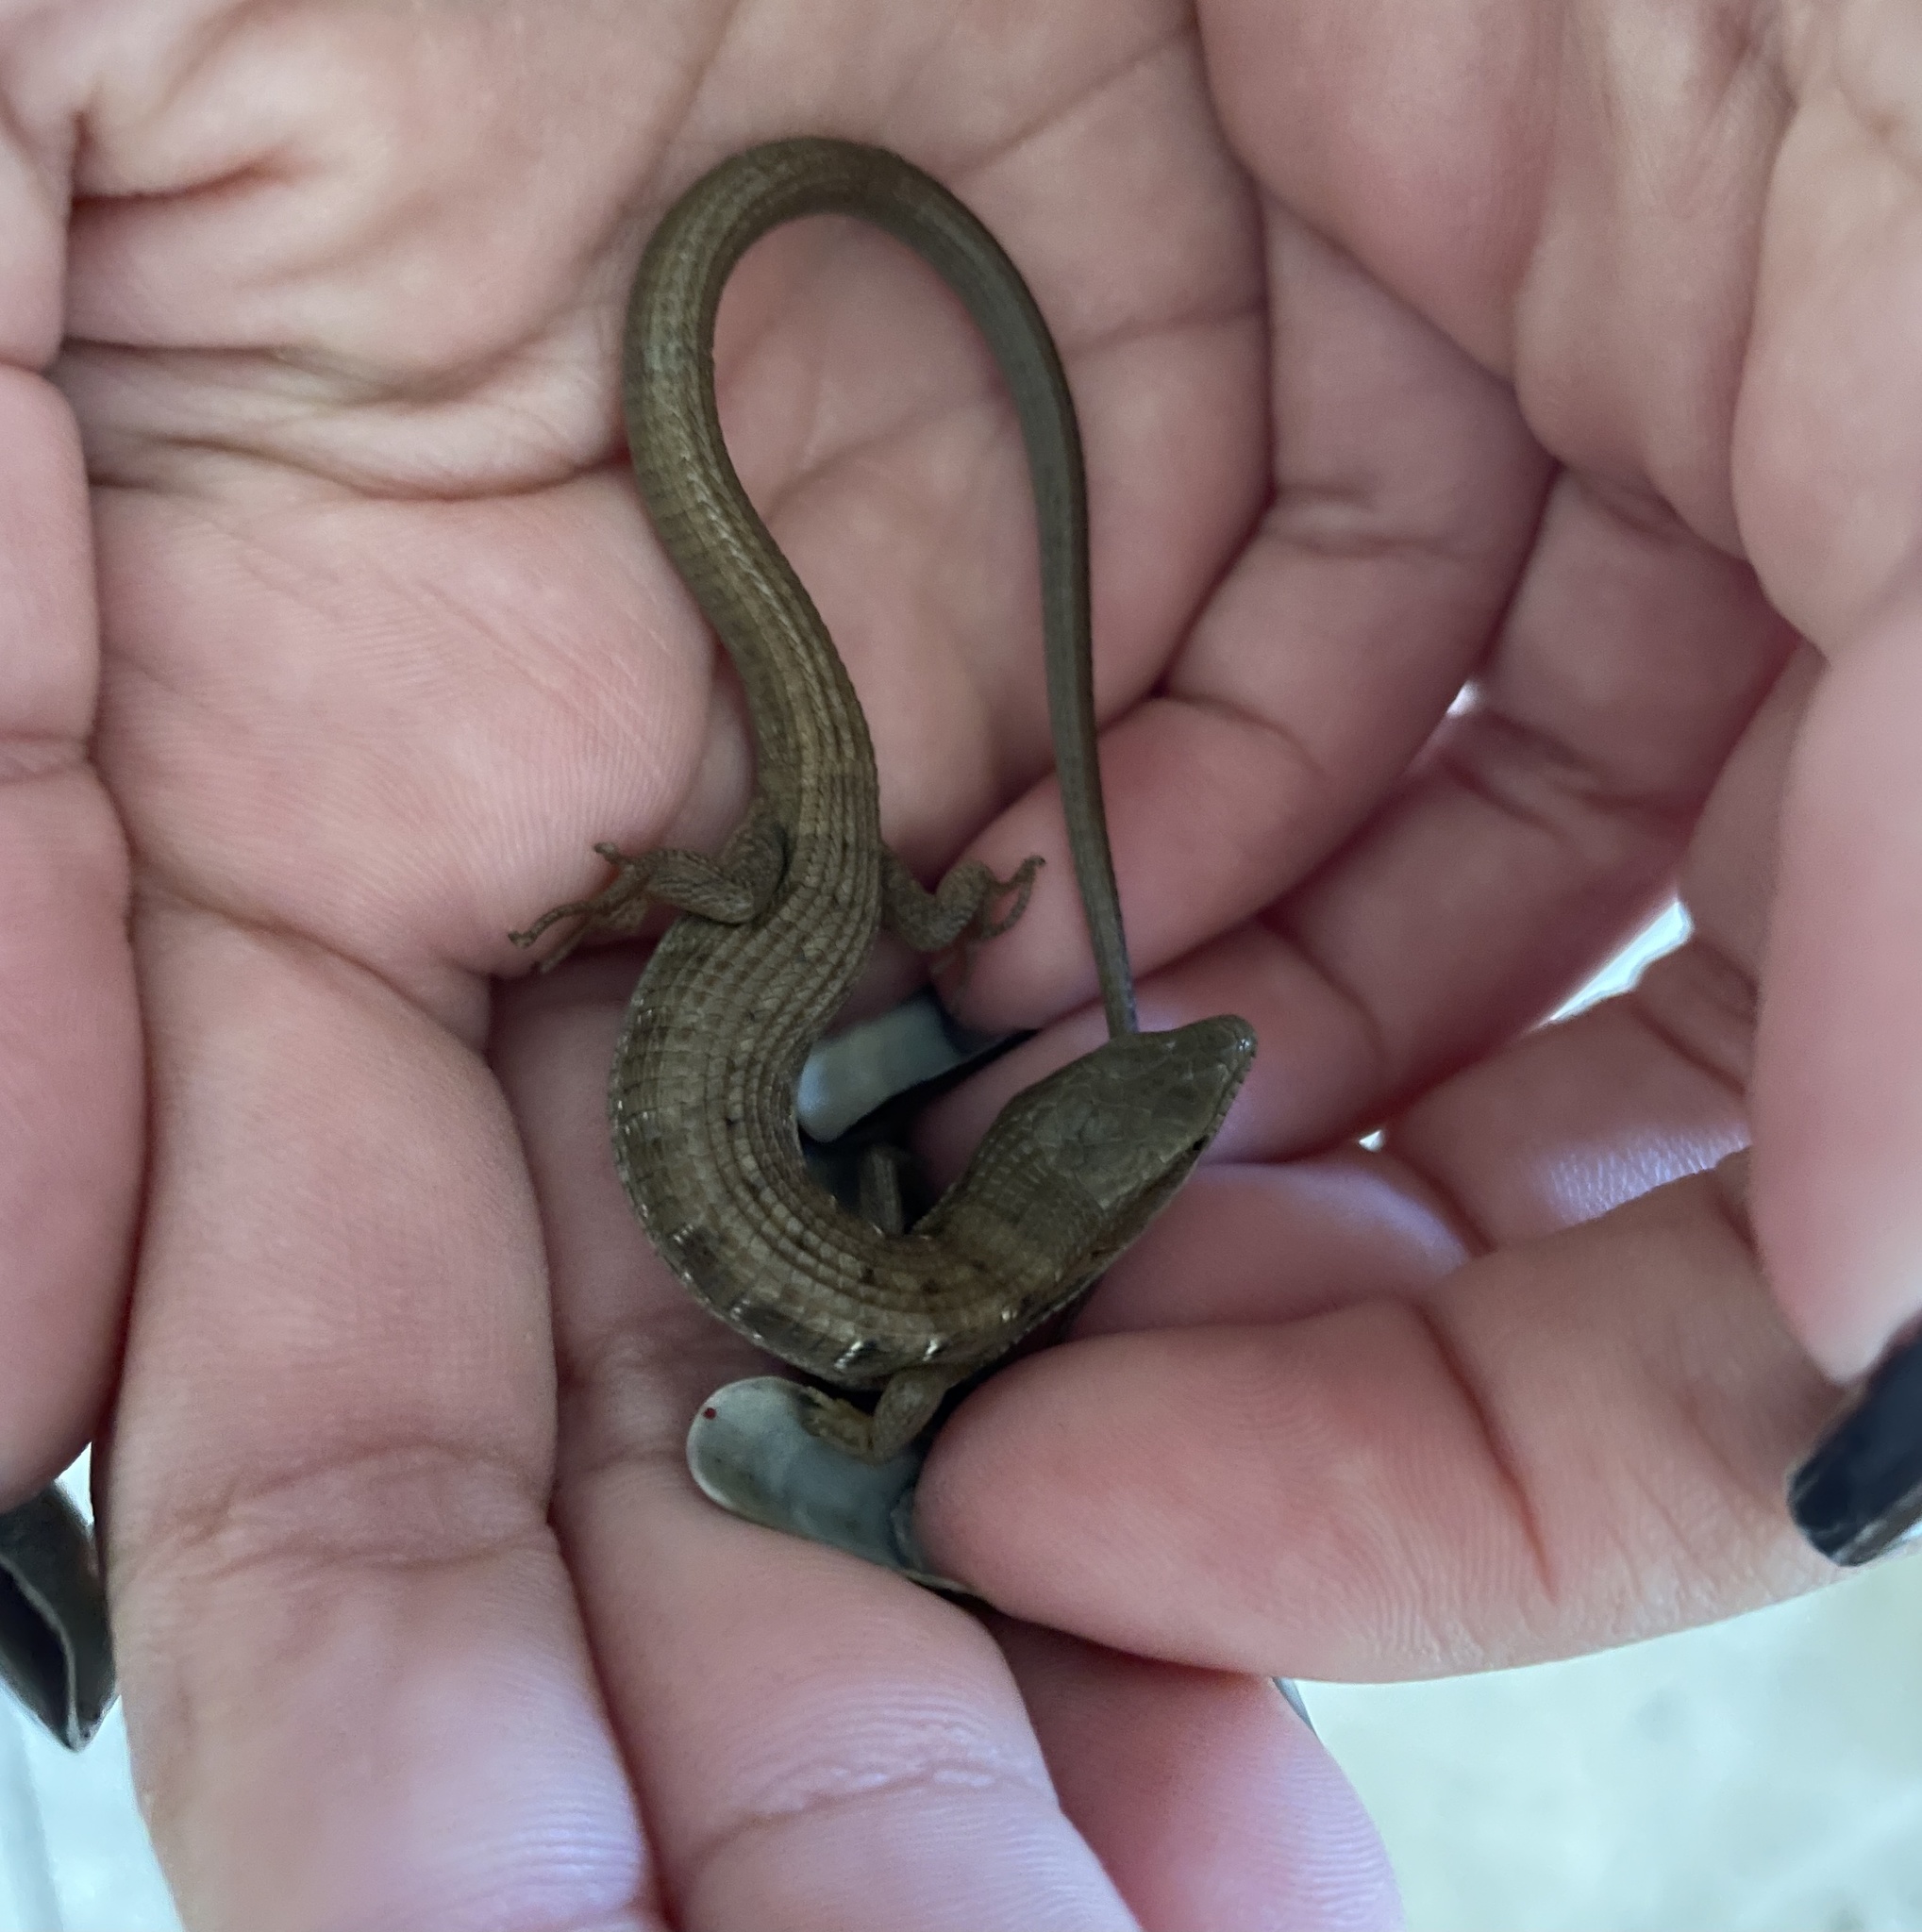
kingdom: Animalia
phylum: Chordata
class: Squamata
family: Anguidae
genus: Elgaria
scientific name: Elgaria multicarinata
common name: Southern alligator lizard
